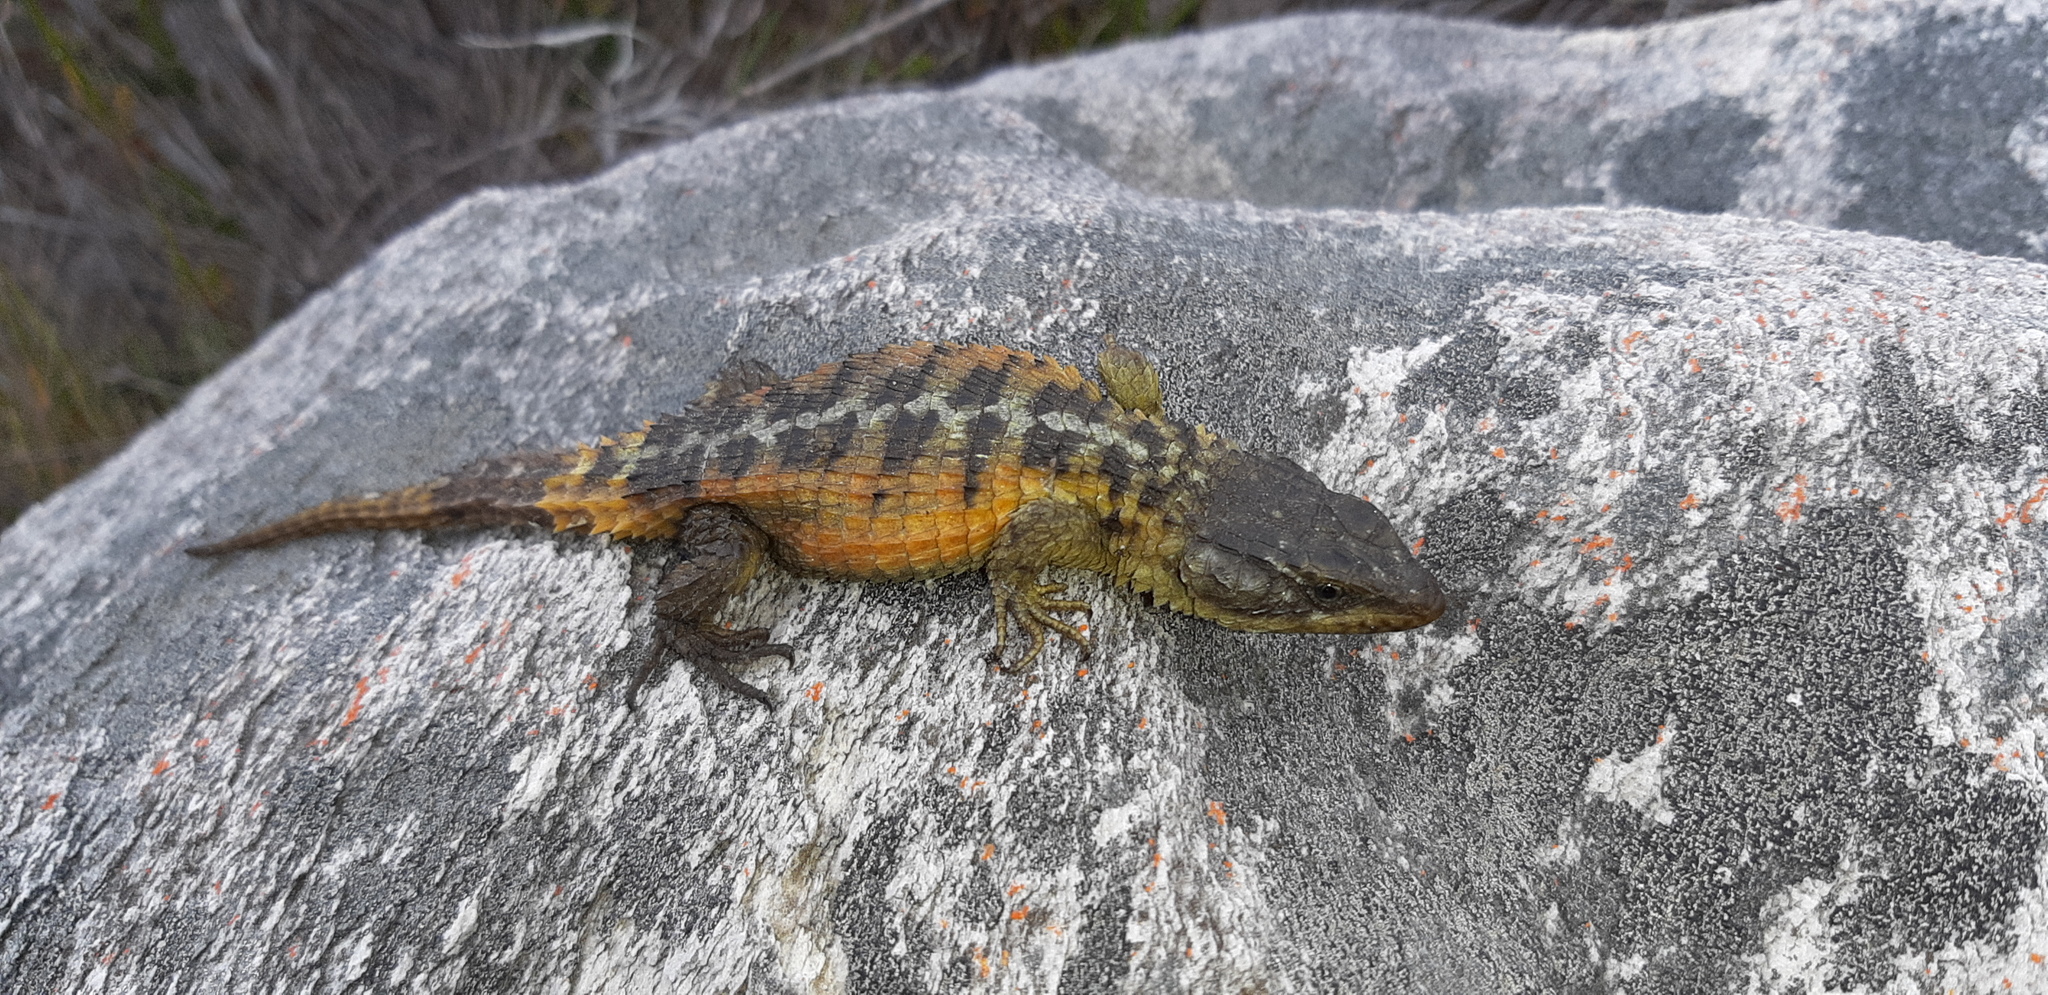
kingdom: Animalia
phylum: Chordata
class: Squamata
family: Cordylidae
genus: Cordylus
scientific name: Cordylus cordylus
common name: Cape girdled lizard
